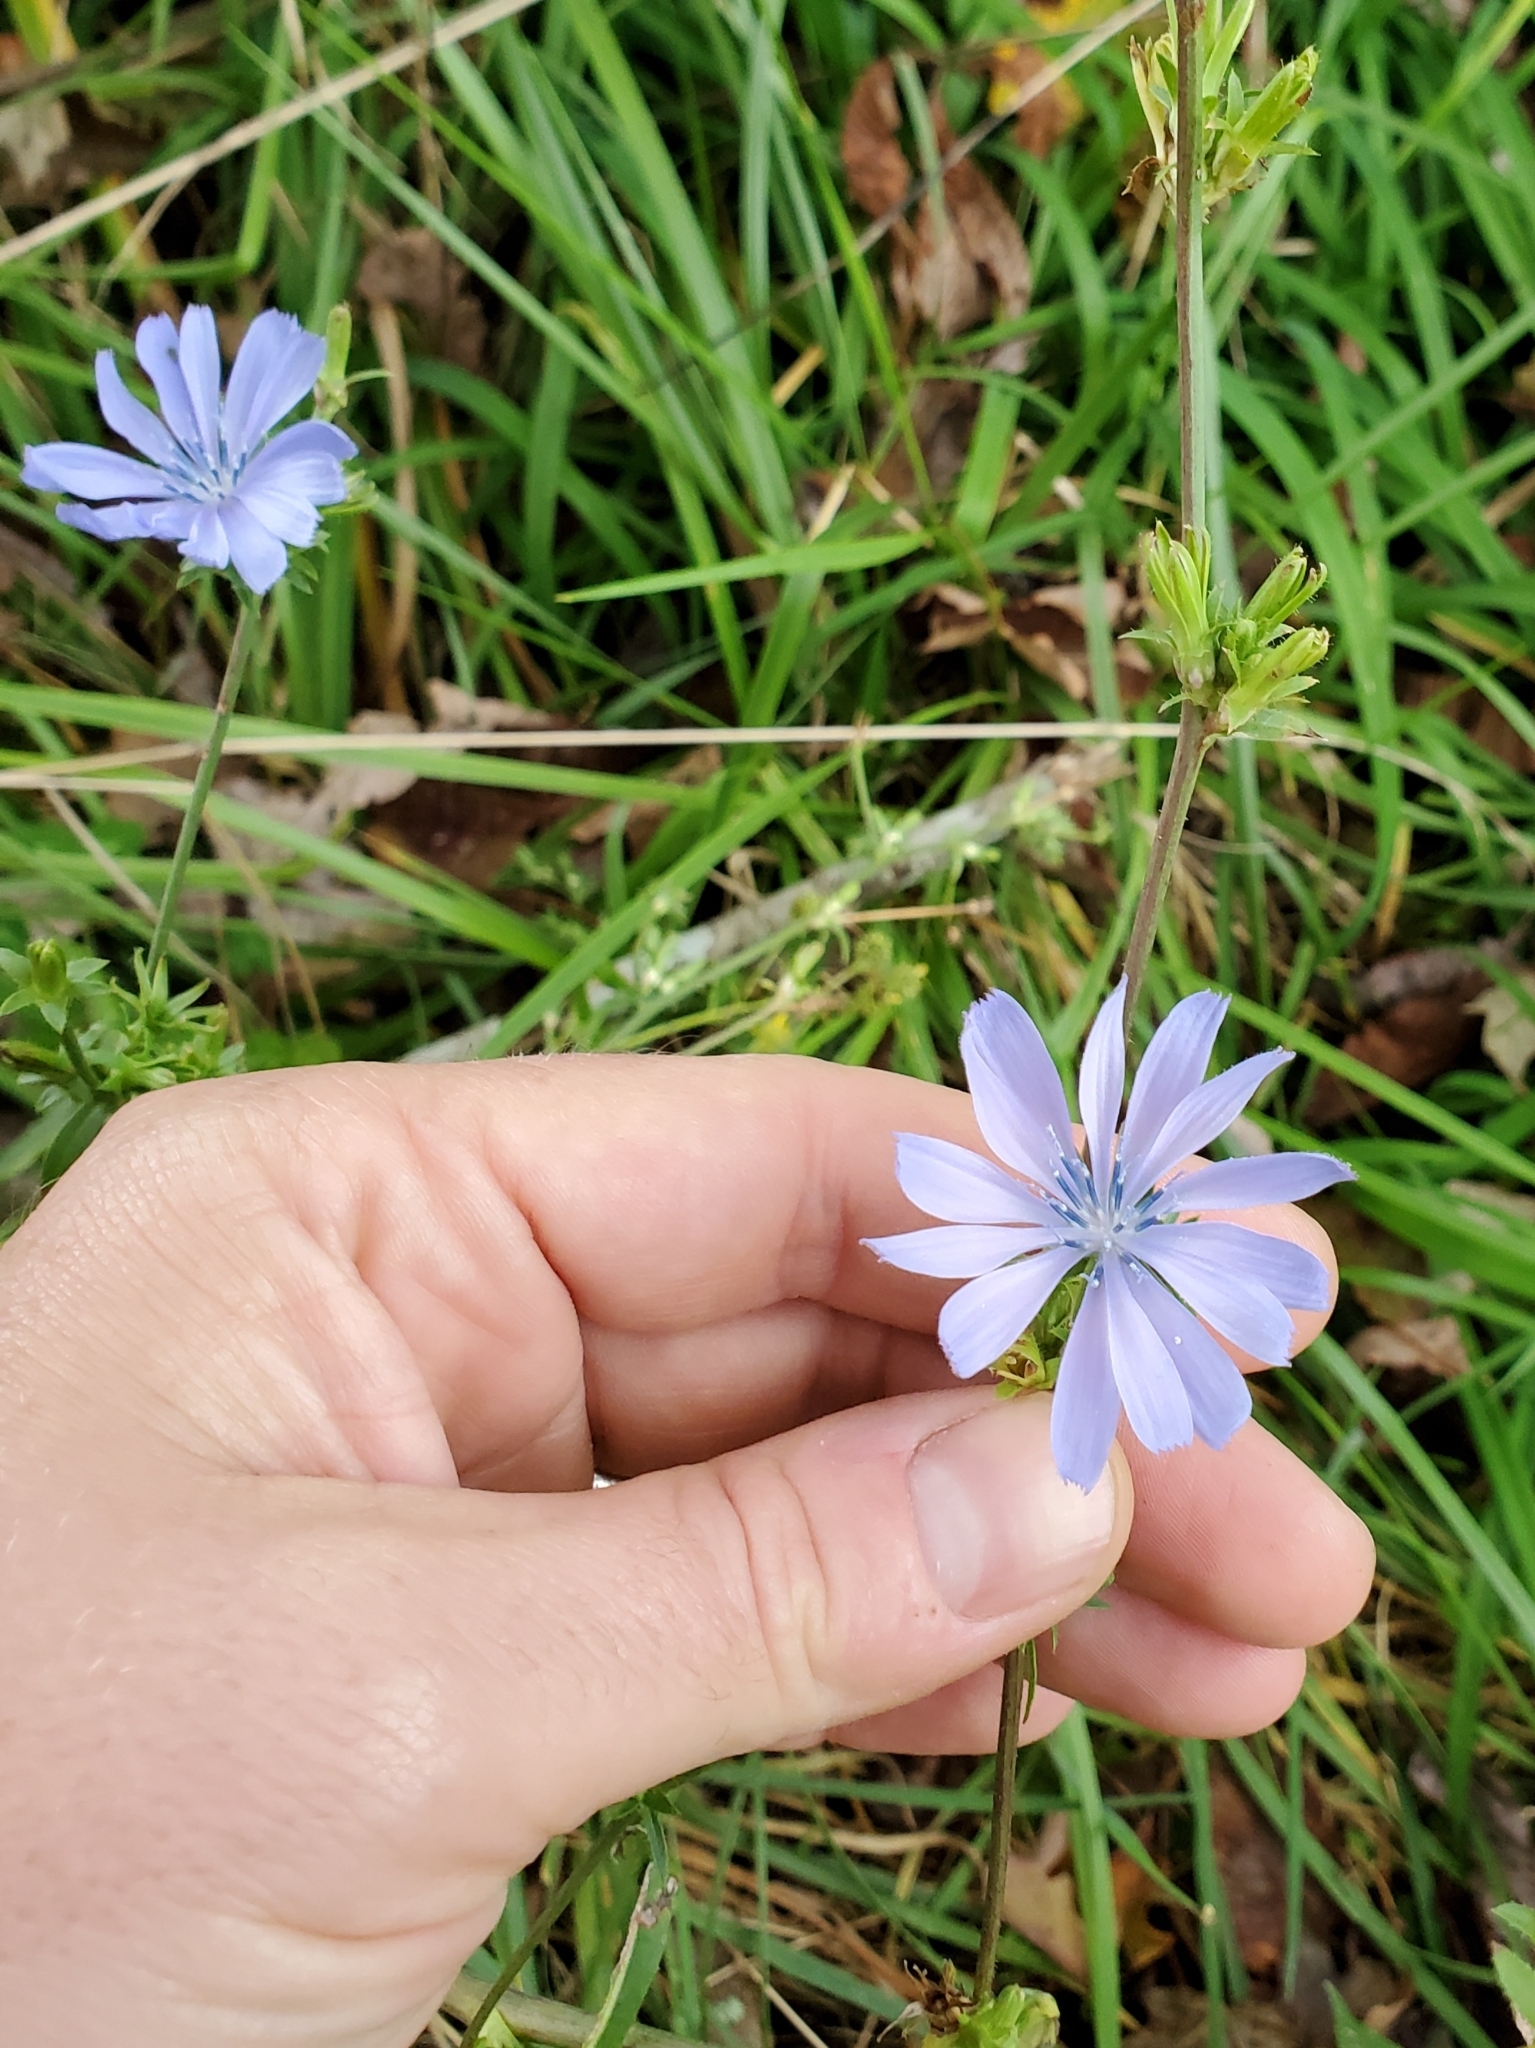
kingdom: Plantae
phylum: Tracheophyta
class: Magnoliopsida
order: Asterales
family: Asteraceae
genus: Cichorium
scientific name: Cichorium intybus
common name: Chicory
